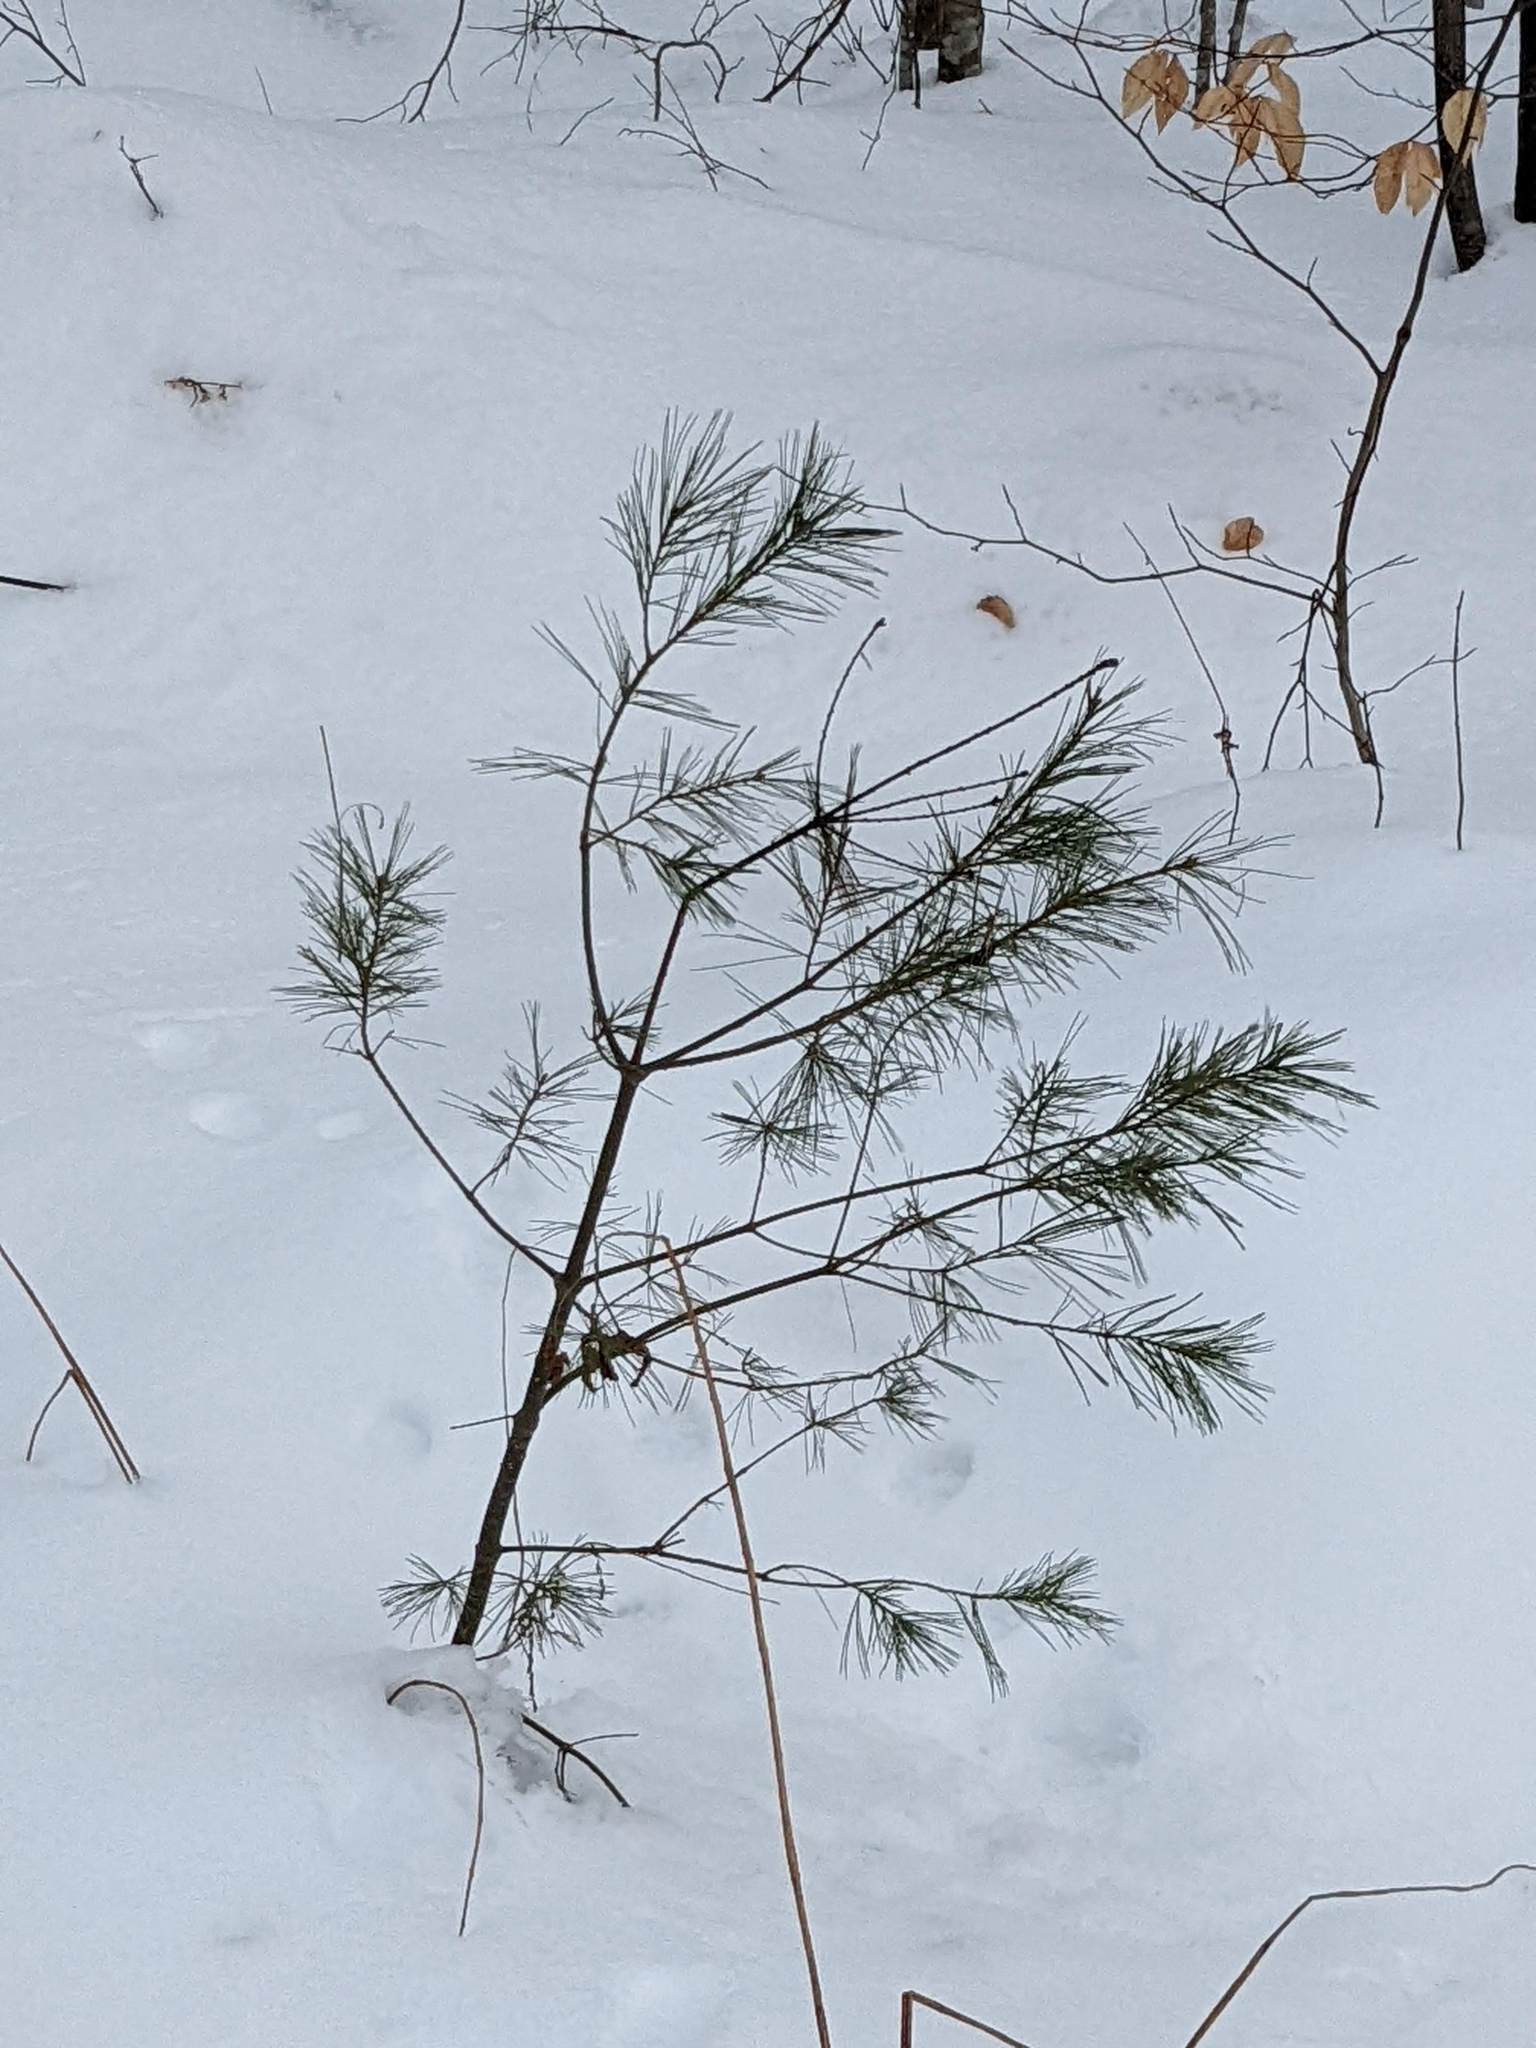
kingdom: Plantae
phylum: Tracheophyta
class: Pinopsida
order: Pinales
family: Pinaceae
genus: Pinus
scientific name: Pinus strobus
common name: Weymouth pine
